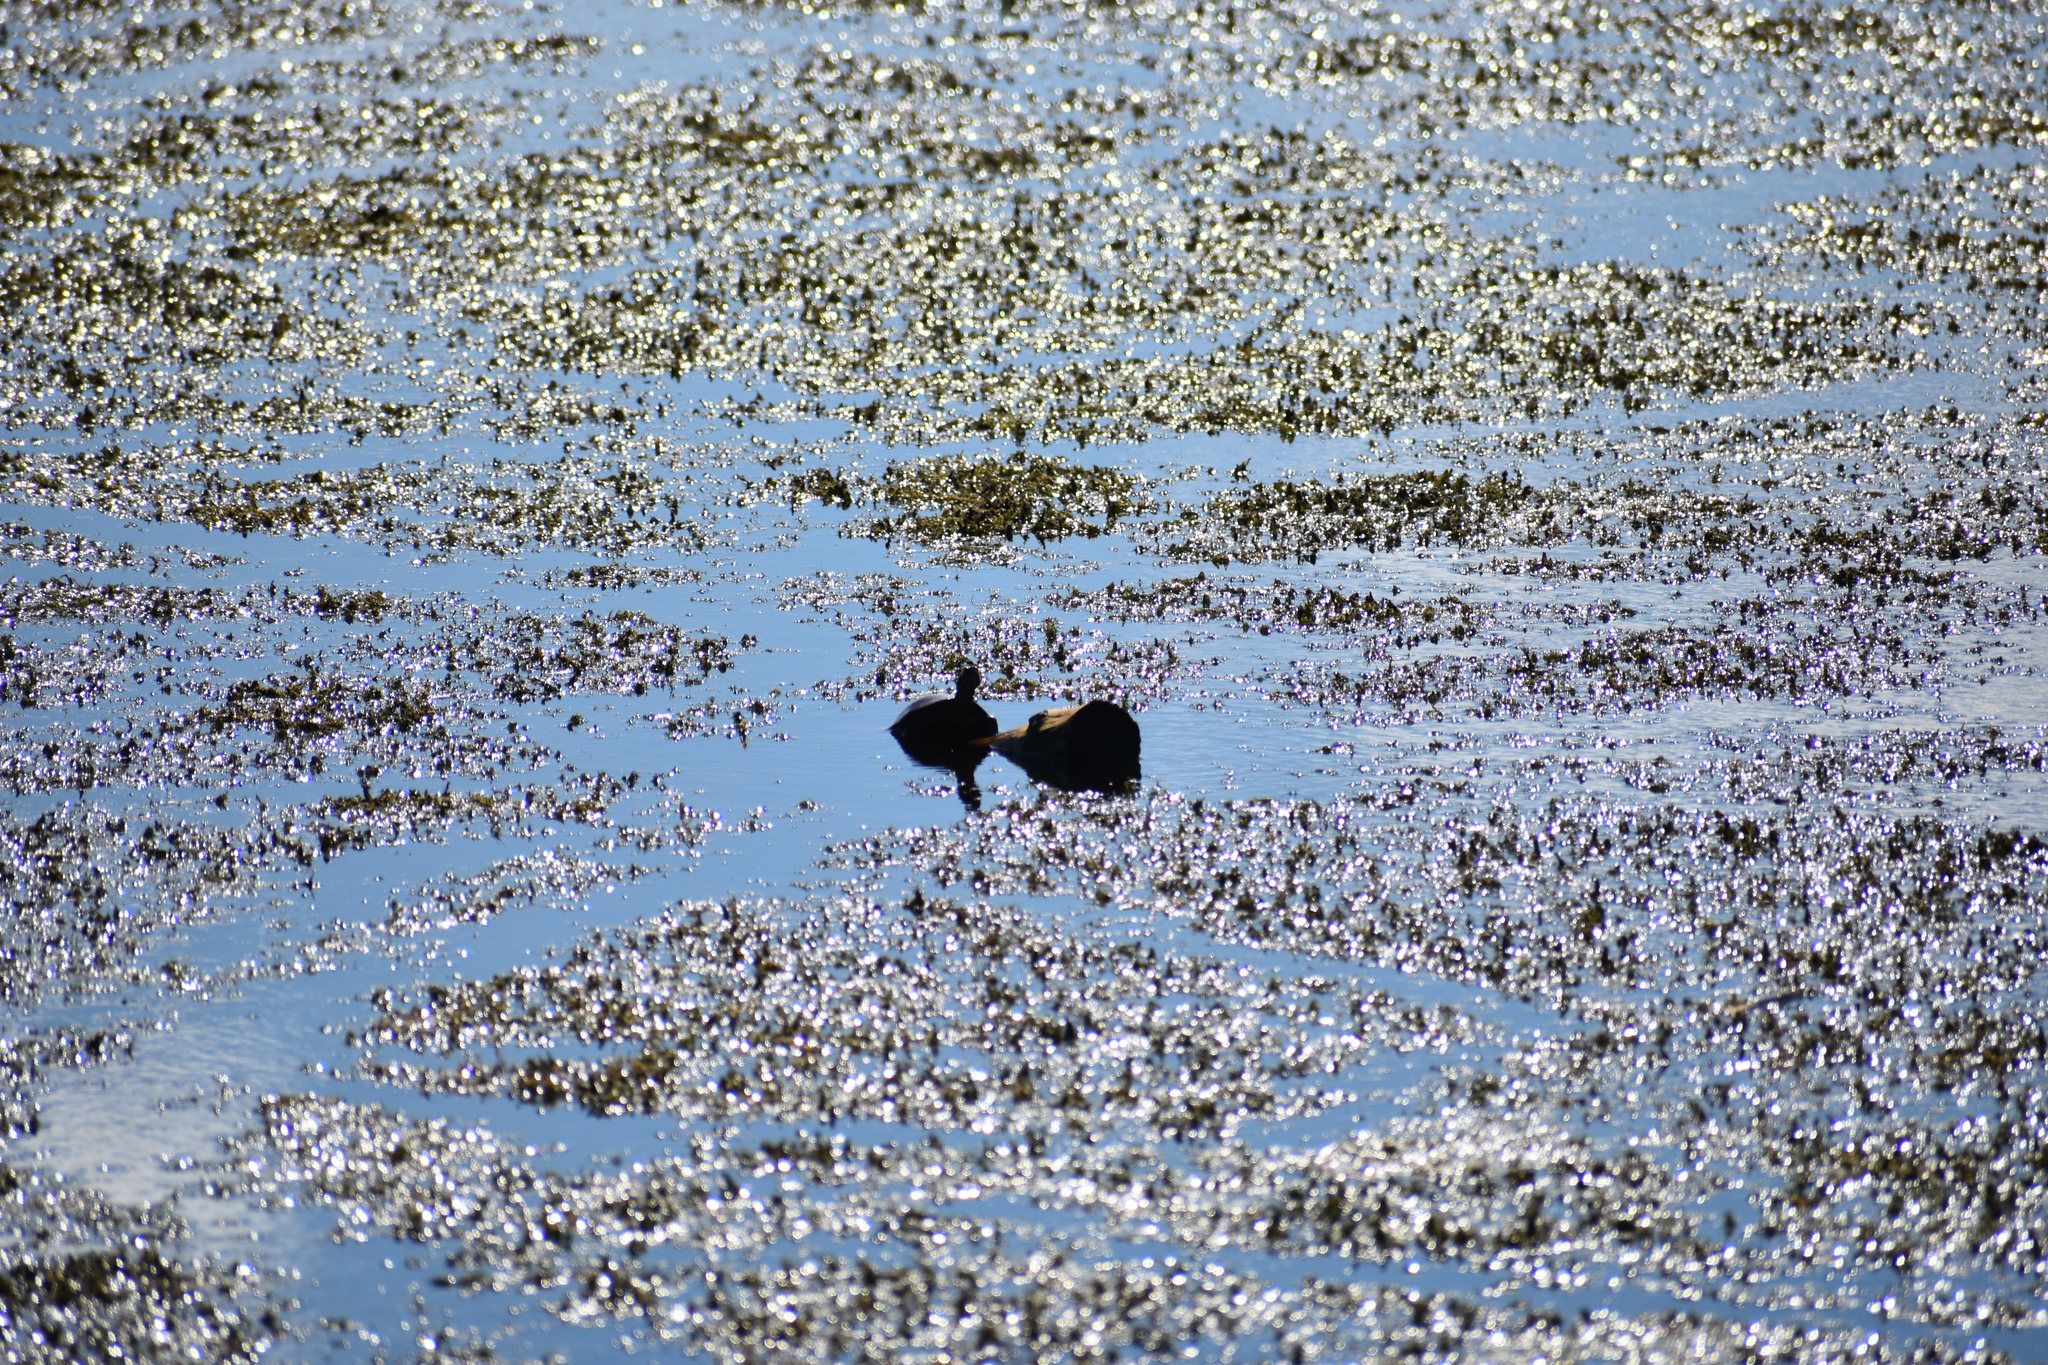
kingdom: Animalia
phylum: Chordata
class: Testudines
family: Emydidae
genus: Chrysemys
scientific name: Chrysemys picta
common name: Painted turtle
